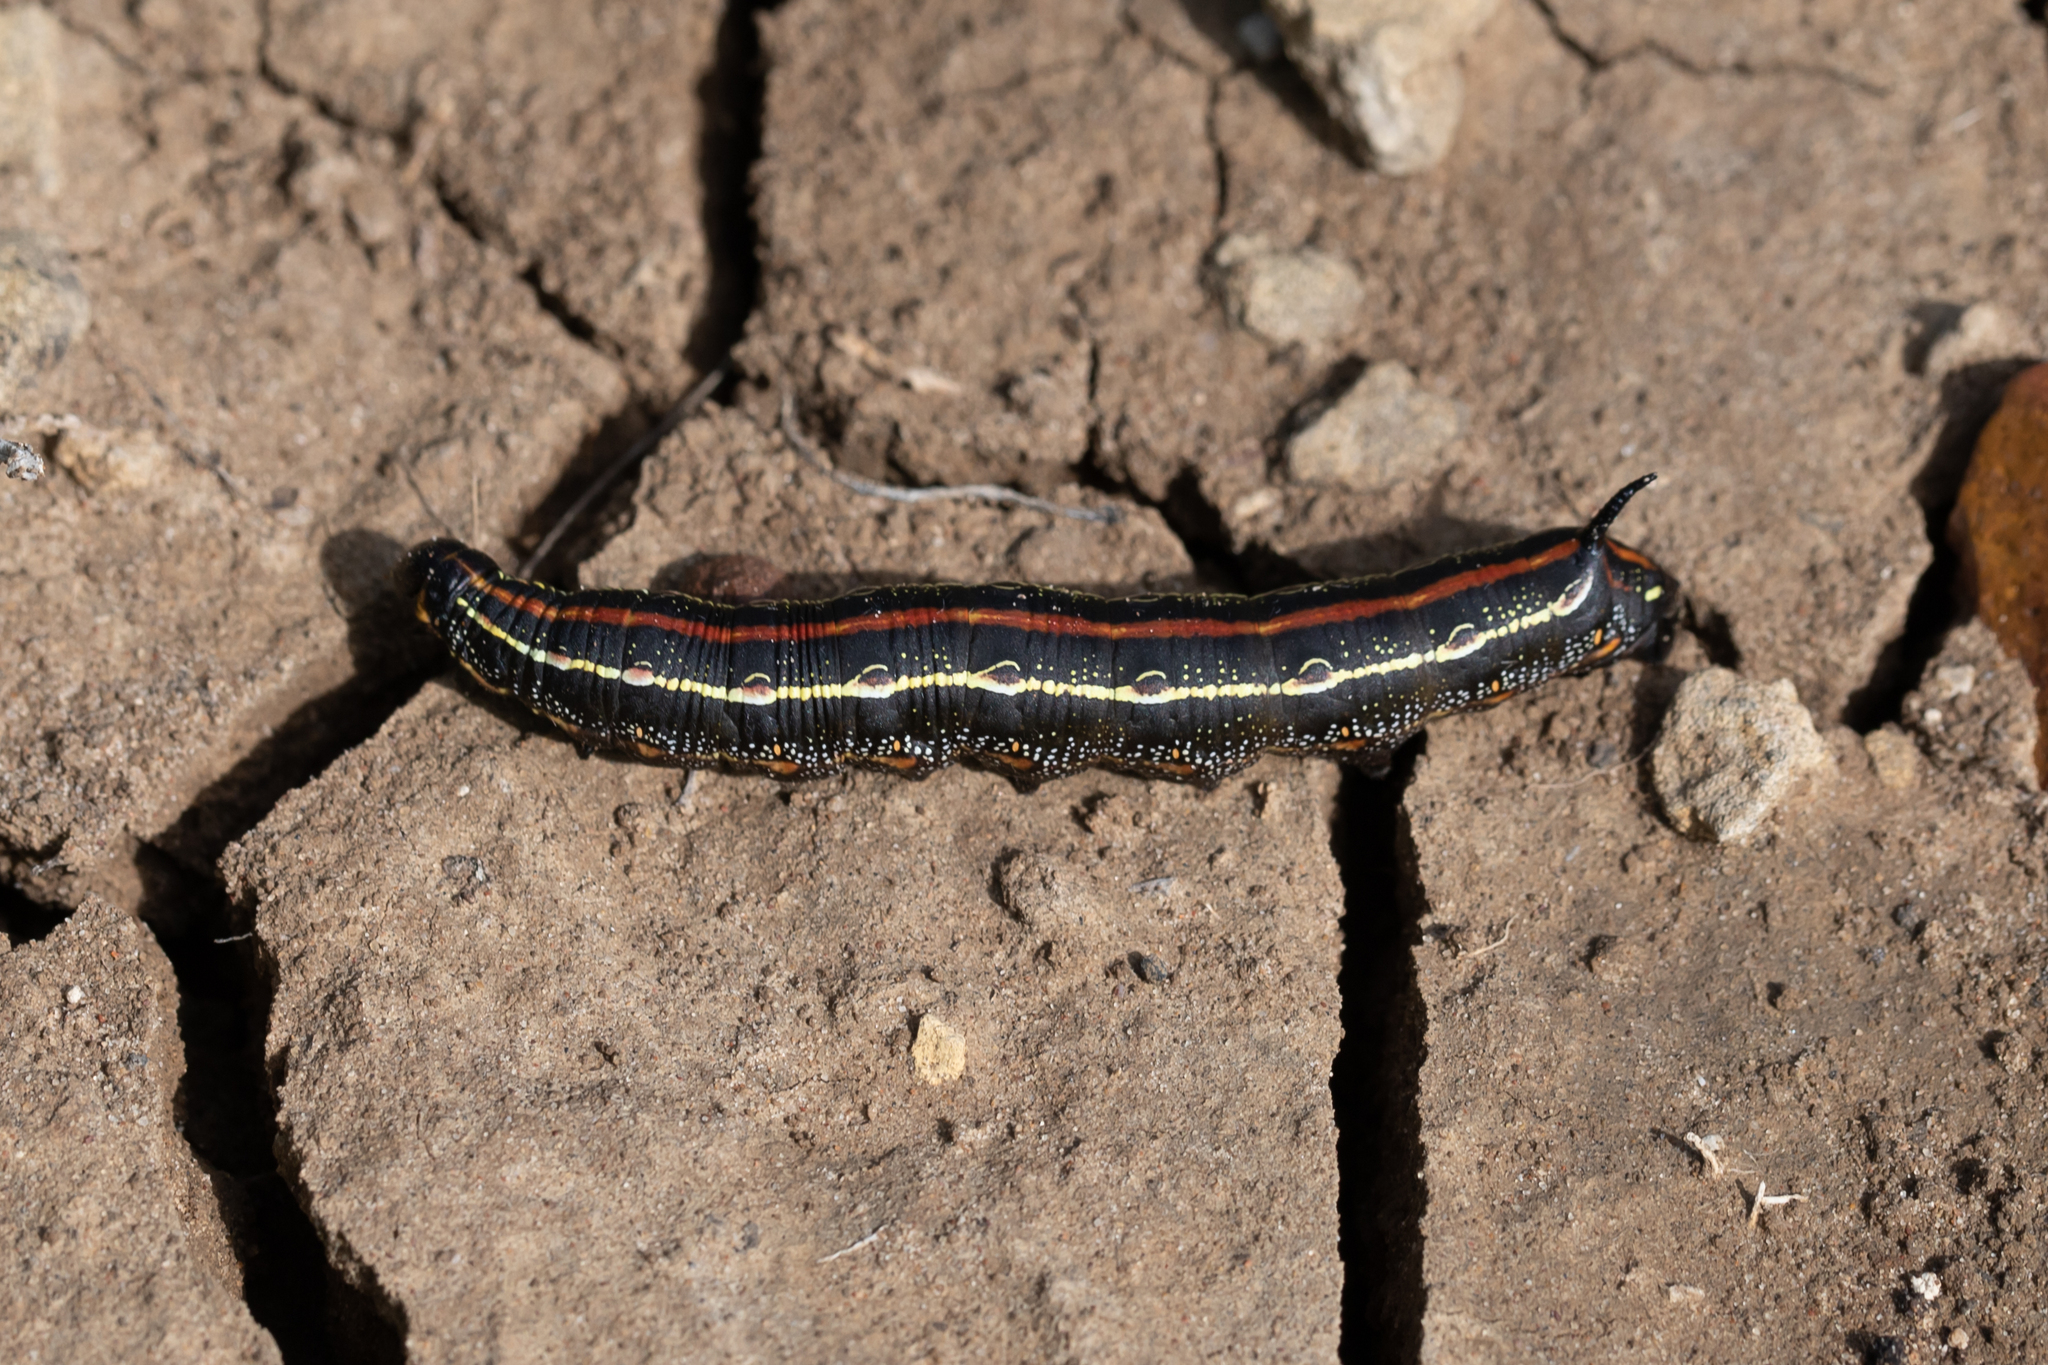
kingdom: Animalia
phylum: Arthropoda
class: Insecta
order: Lepidoptera
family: Sphingidae
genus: Hyles
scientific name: Hyles livornicoides
